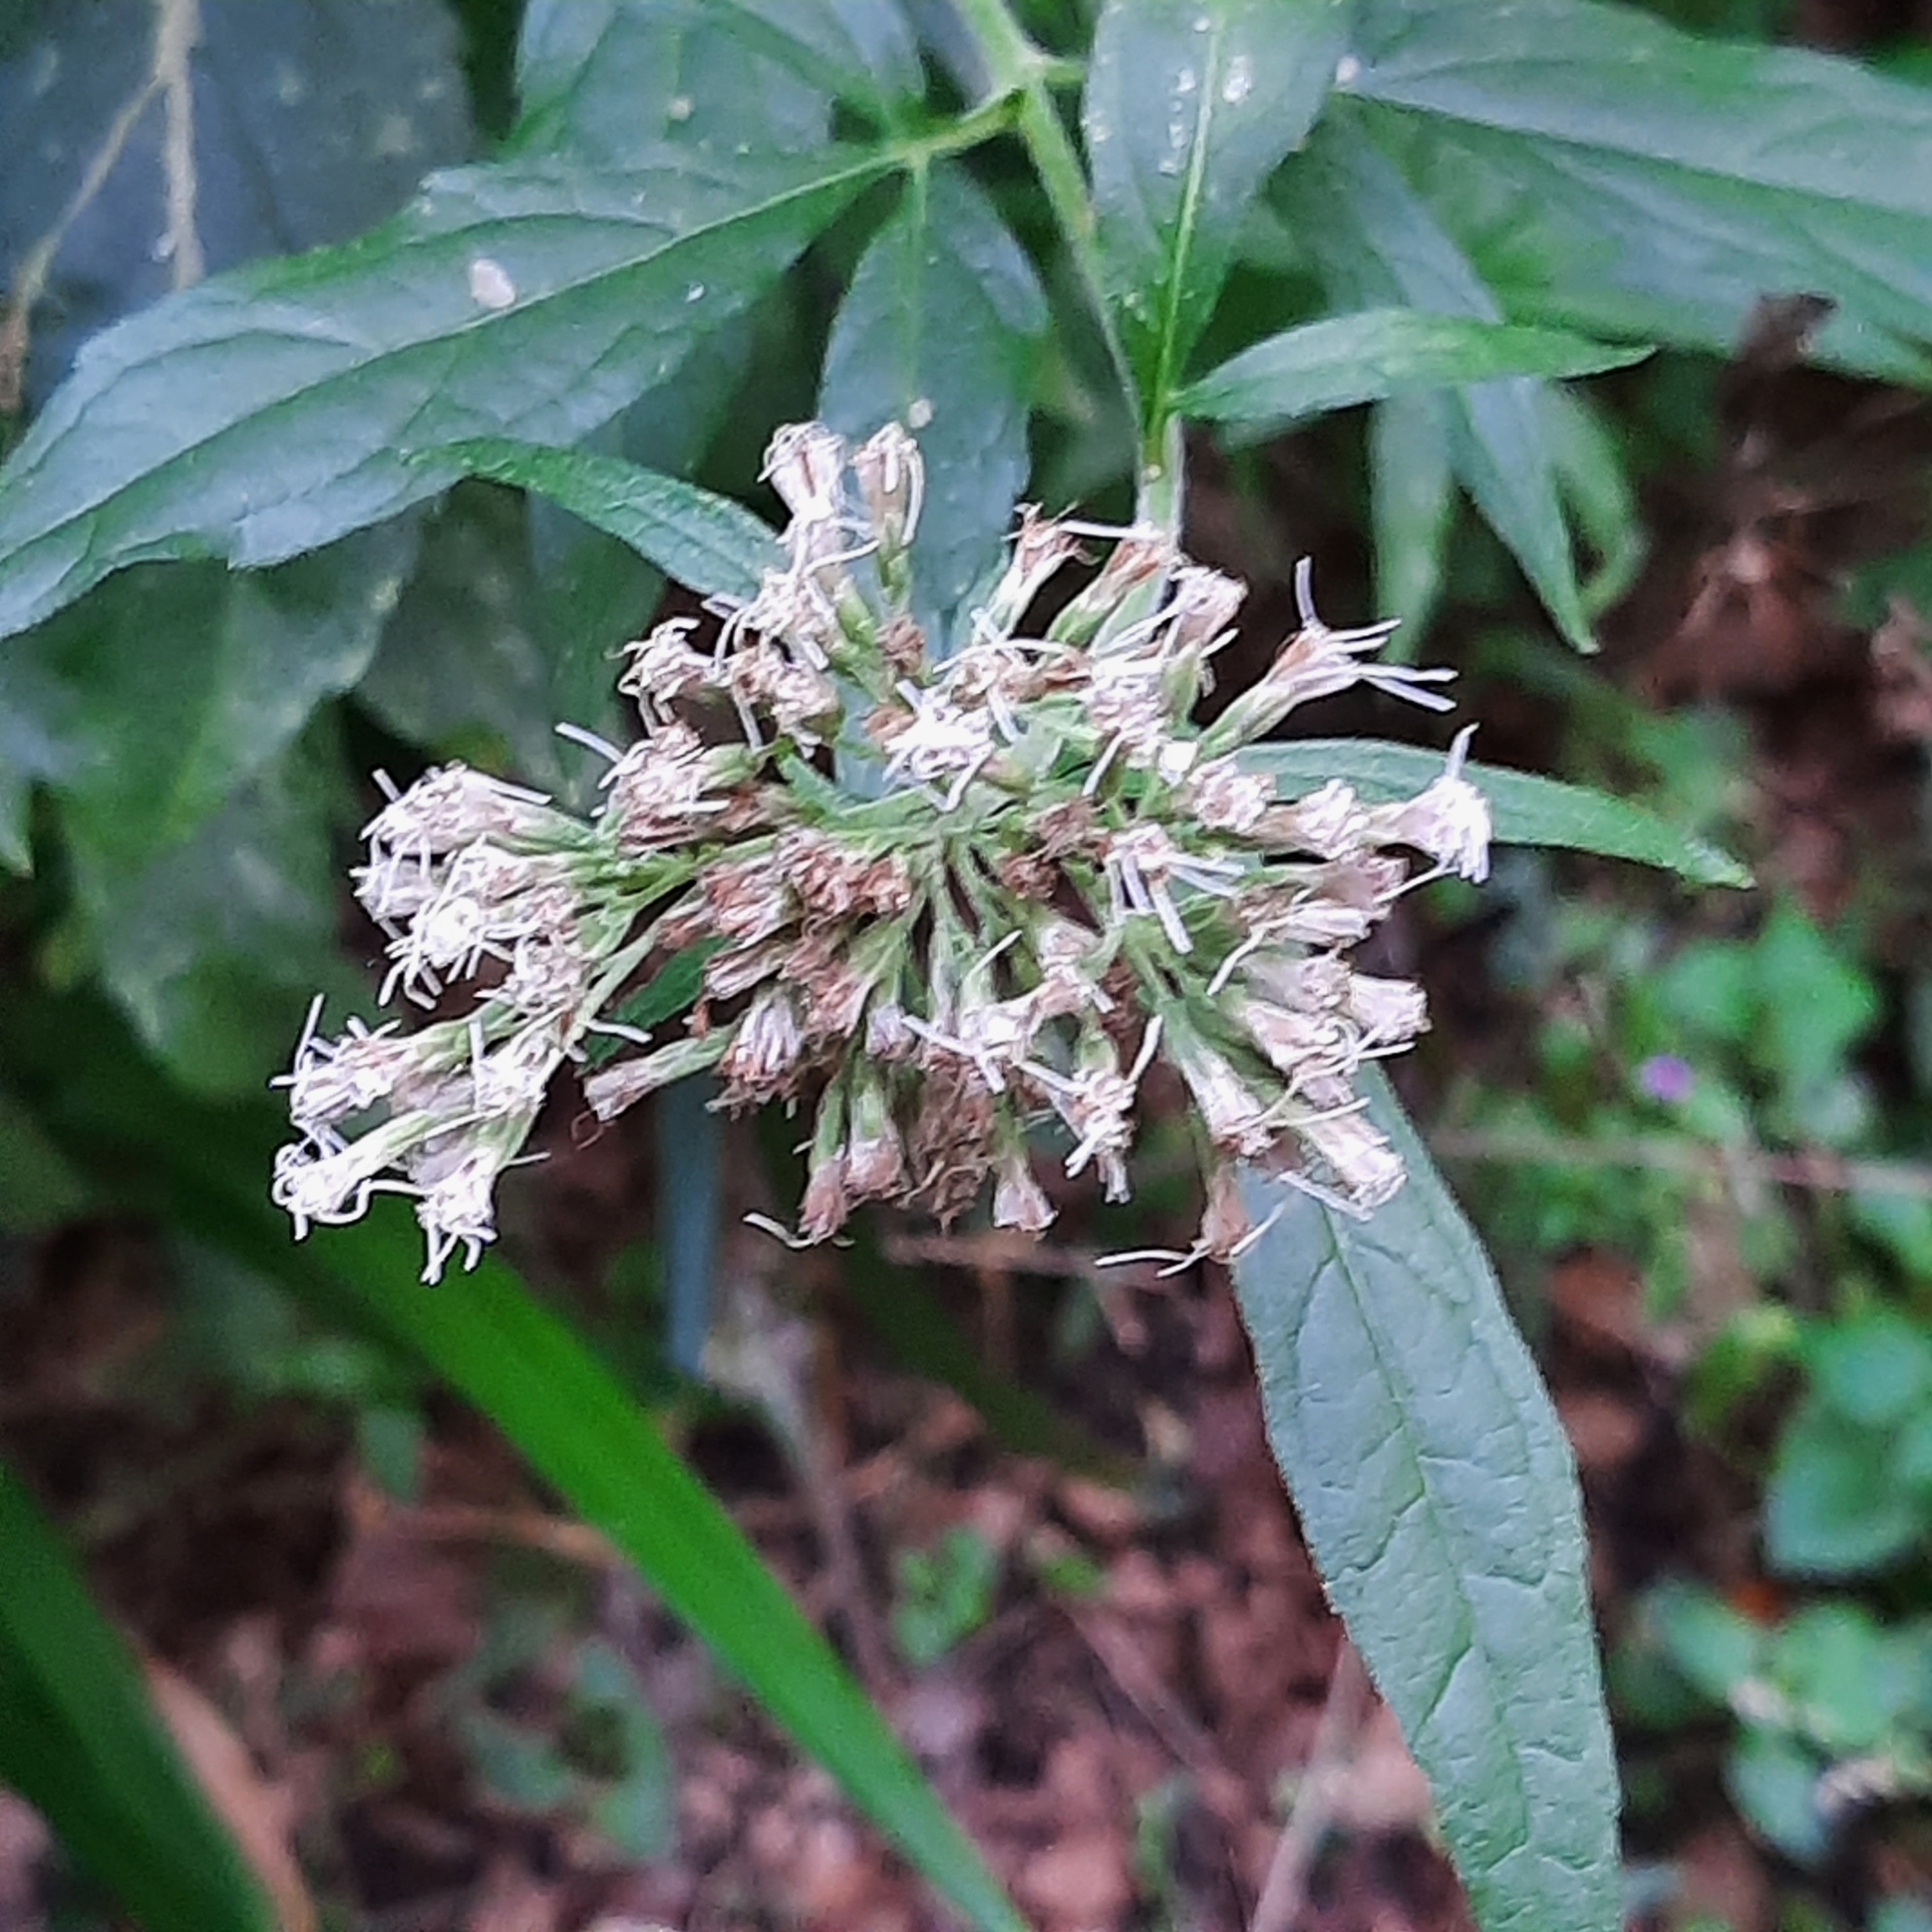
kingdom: Plantae
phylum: Tracheophyta
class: Magnoliopsida
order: Asterales
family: Asteraceae
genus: Eupatorium
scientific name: Eupatorium cannabinum
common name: Hemp-agrimony
